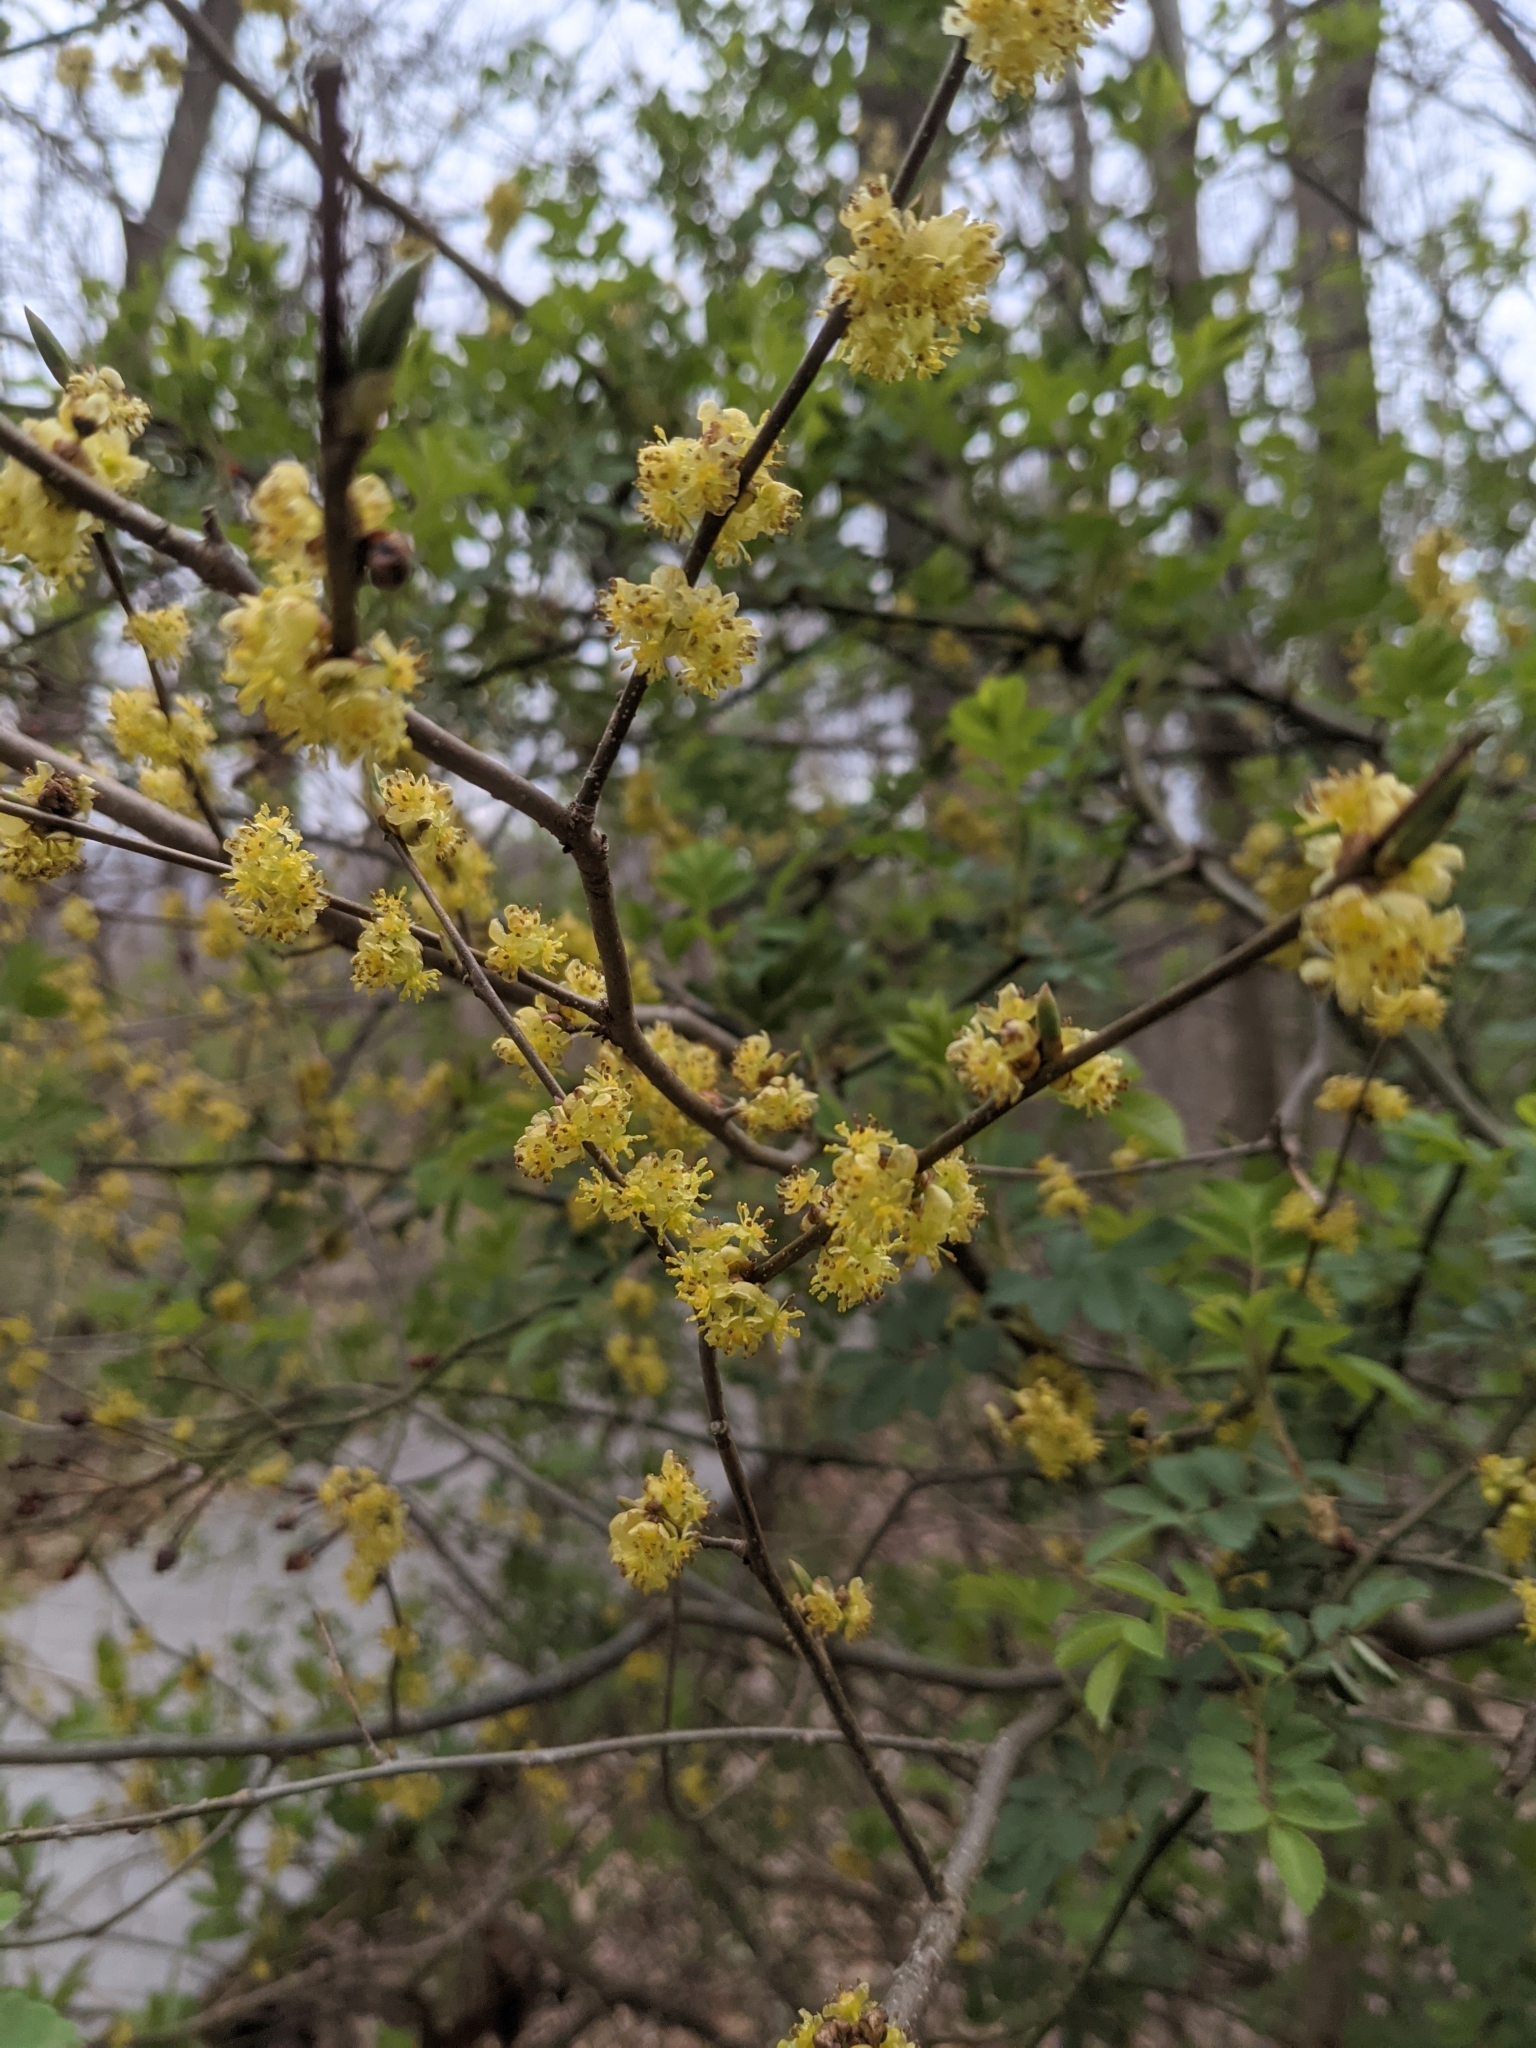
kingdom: Plantae
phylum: Tracheophyta
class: Magnoliopsida
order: Laurales
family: Lauraceae
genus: Lindera
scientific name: Lindera benzoin
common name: Spicebush
